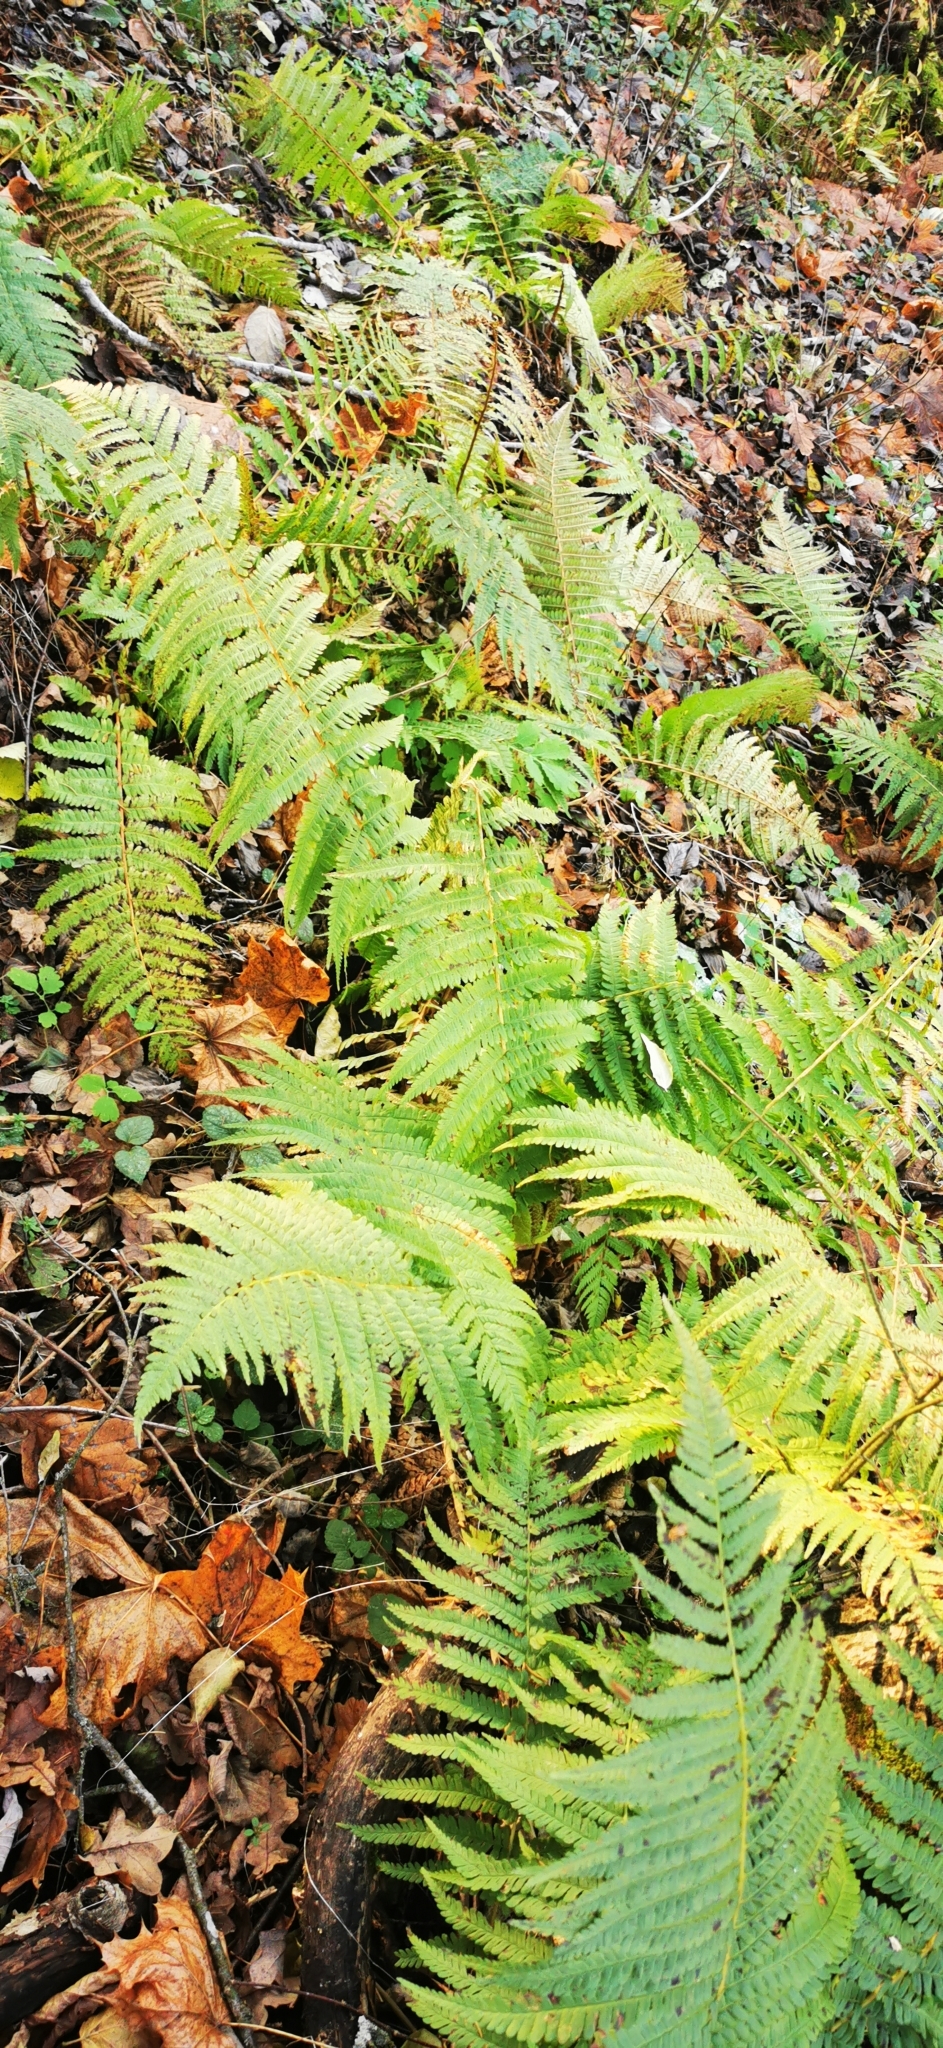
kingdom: Plantae
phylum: Tracheophyta
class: Polypodiopsida
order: Polypodiales
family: Dryopteridaceae
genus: Dryopteris
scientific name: Dryopteris filix-mas
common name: Male fern
